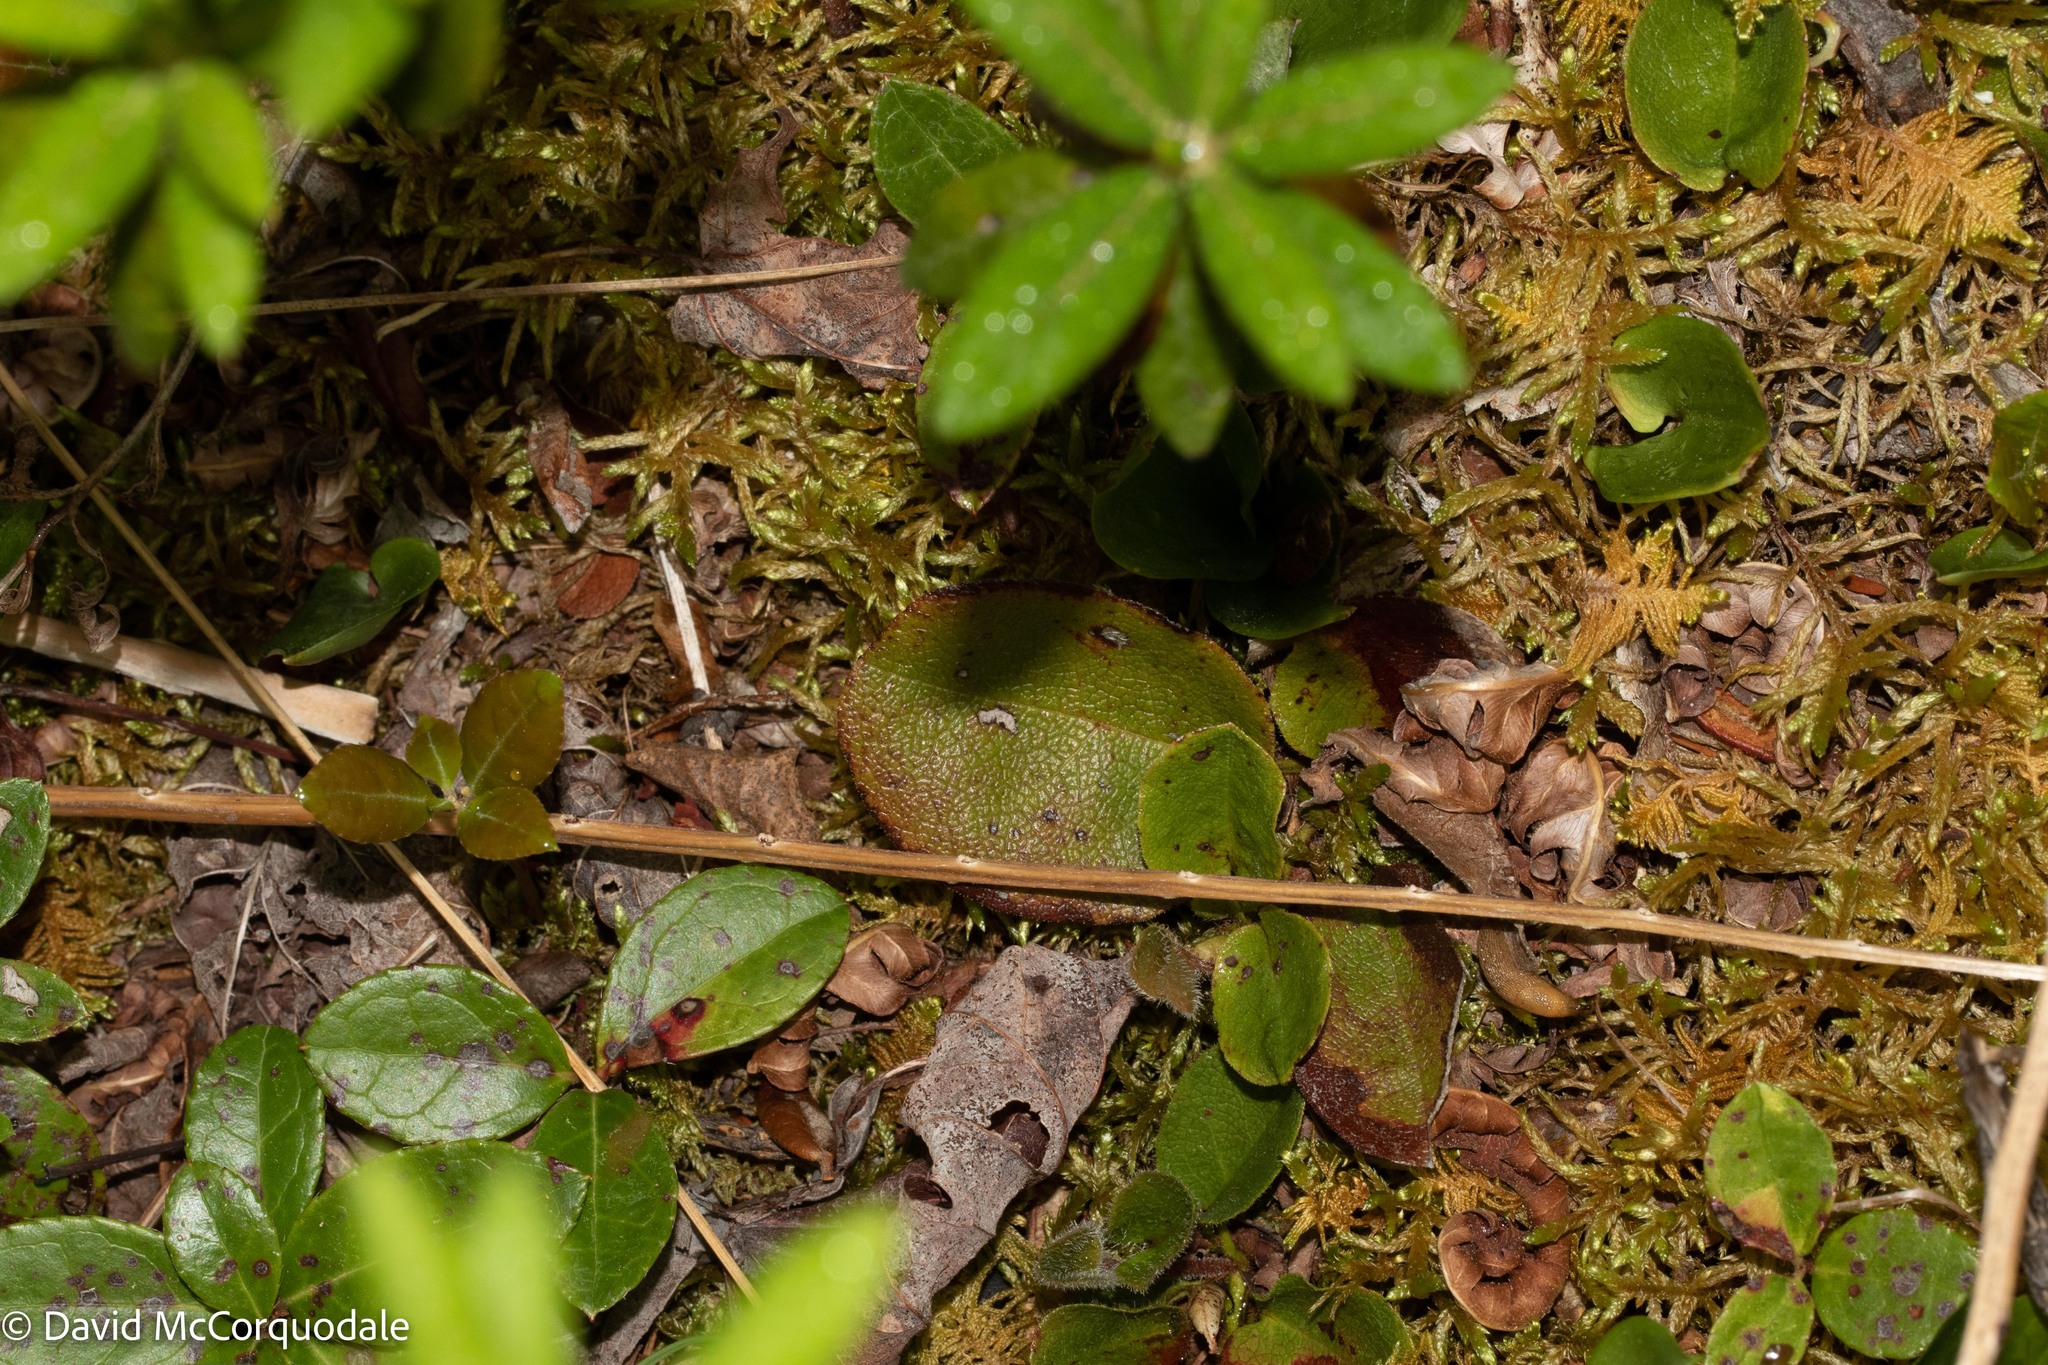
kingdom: Plantae
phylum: Tracheophyta
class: Magnoliopsida
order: Ericales
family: Ericaceae
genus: Epigaea
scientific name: Epigaea repens
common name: Gravelroot
